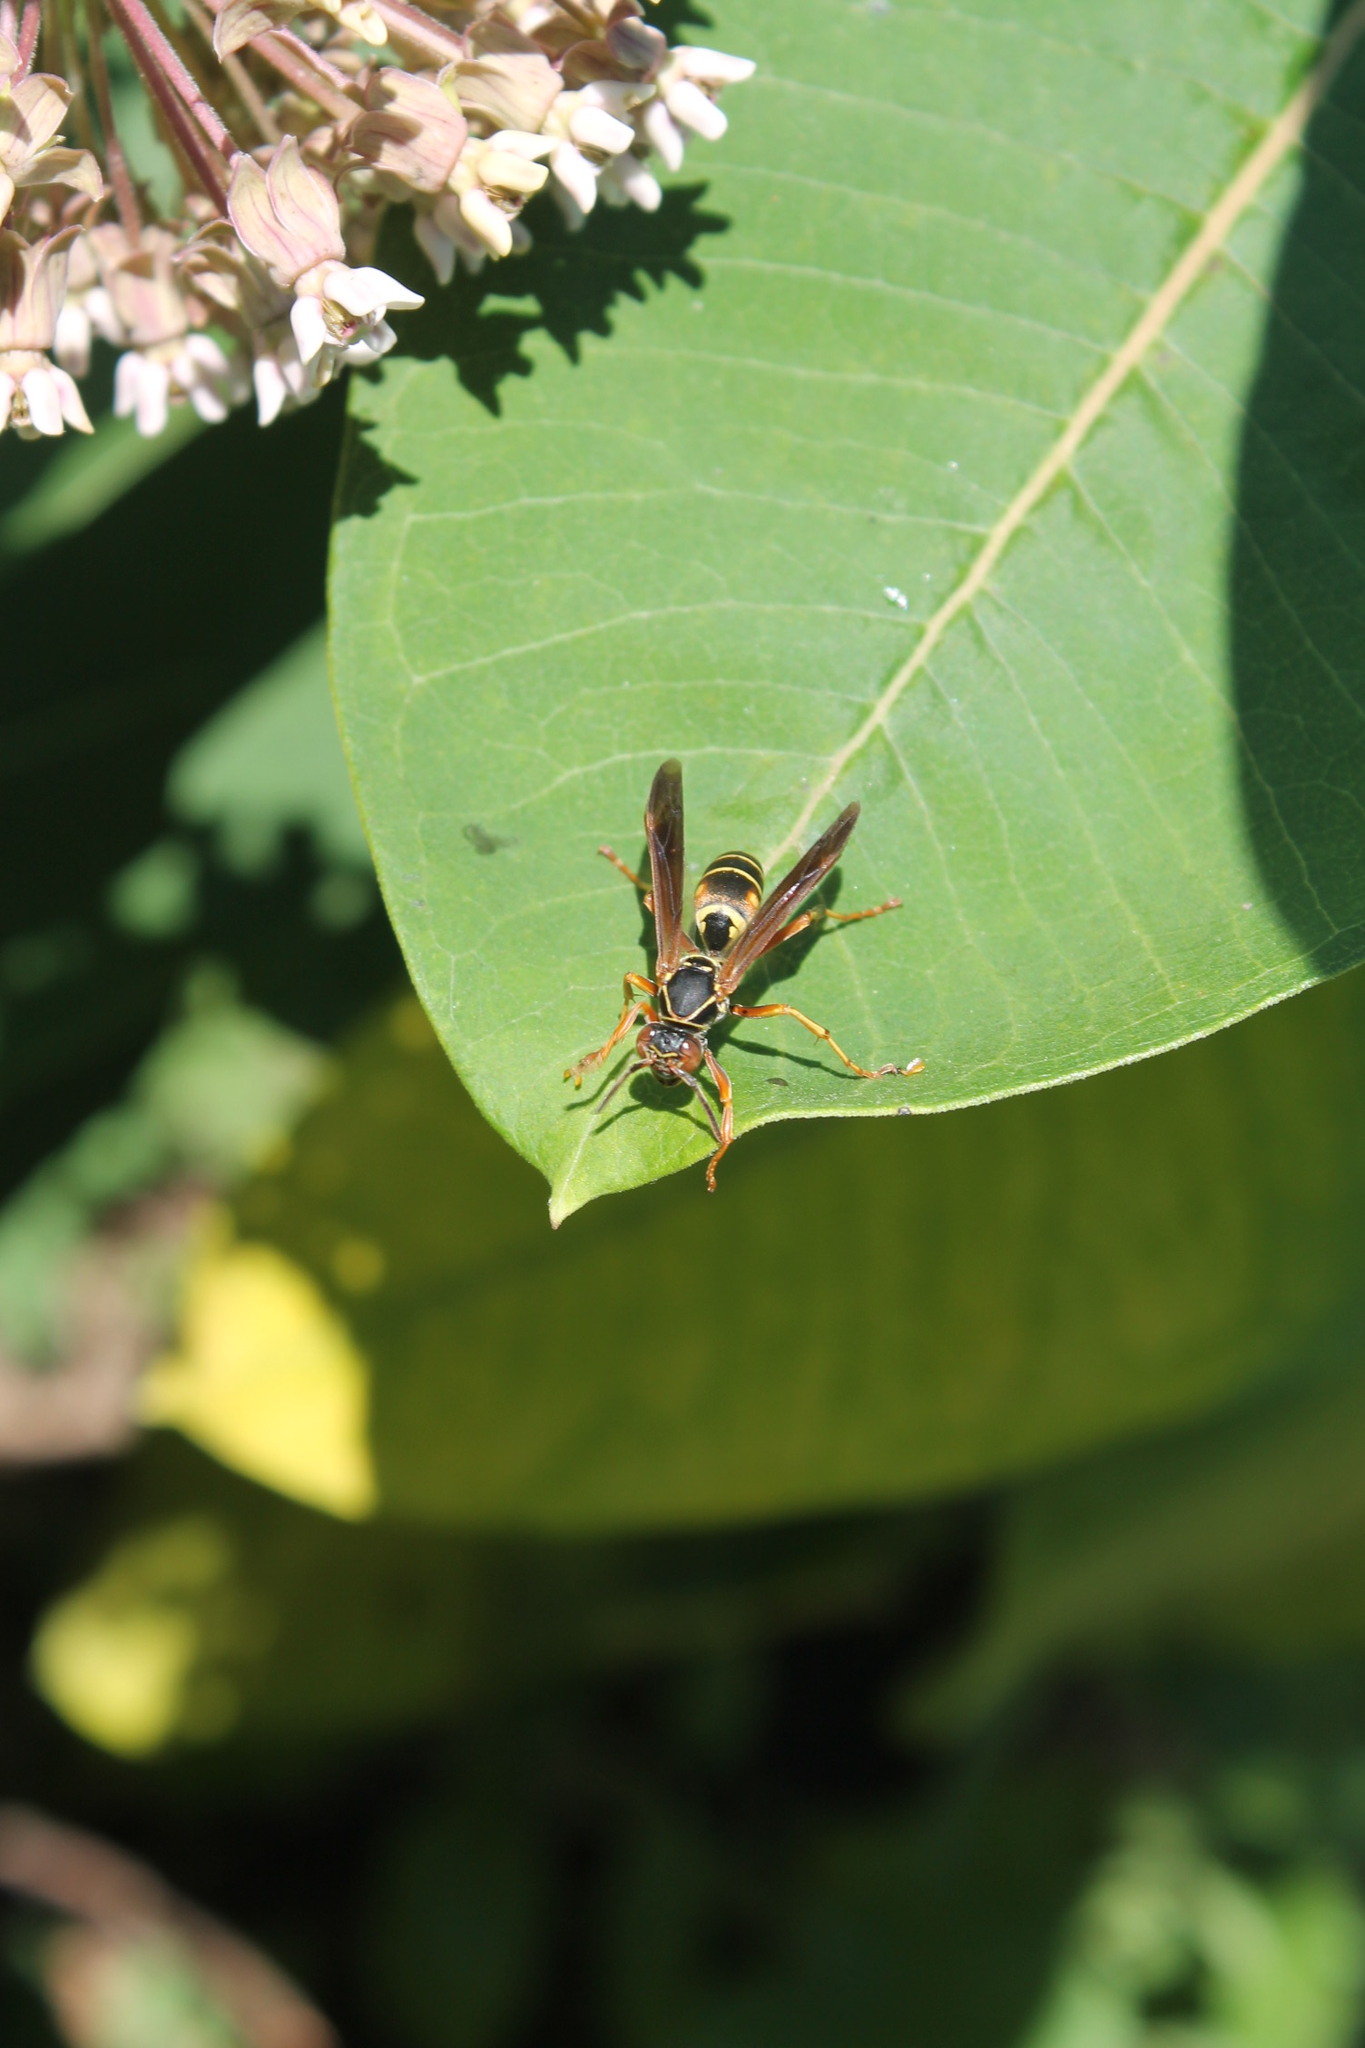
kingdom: Animalia
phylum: Arthropoda
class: Insecta
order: Hymenoptera
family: Eumenidae
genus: Polistes
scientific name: Polistes fuscatus
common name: Dark paper wasp
